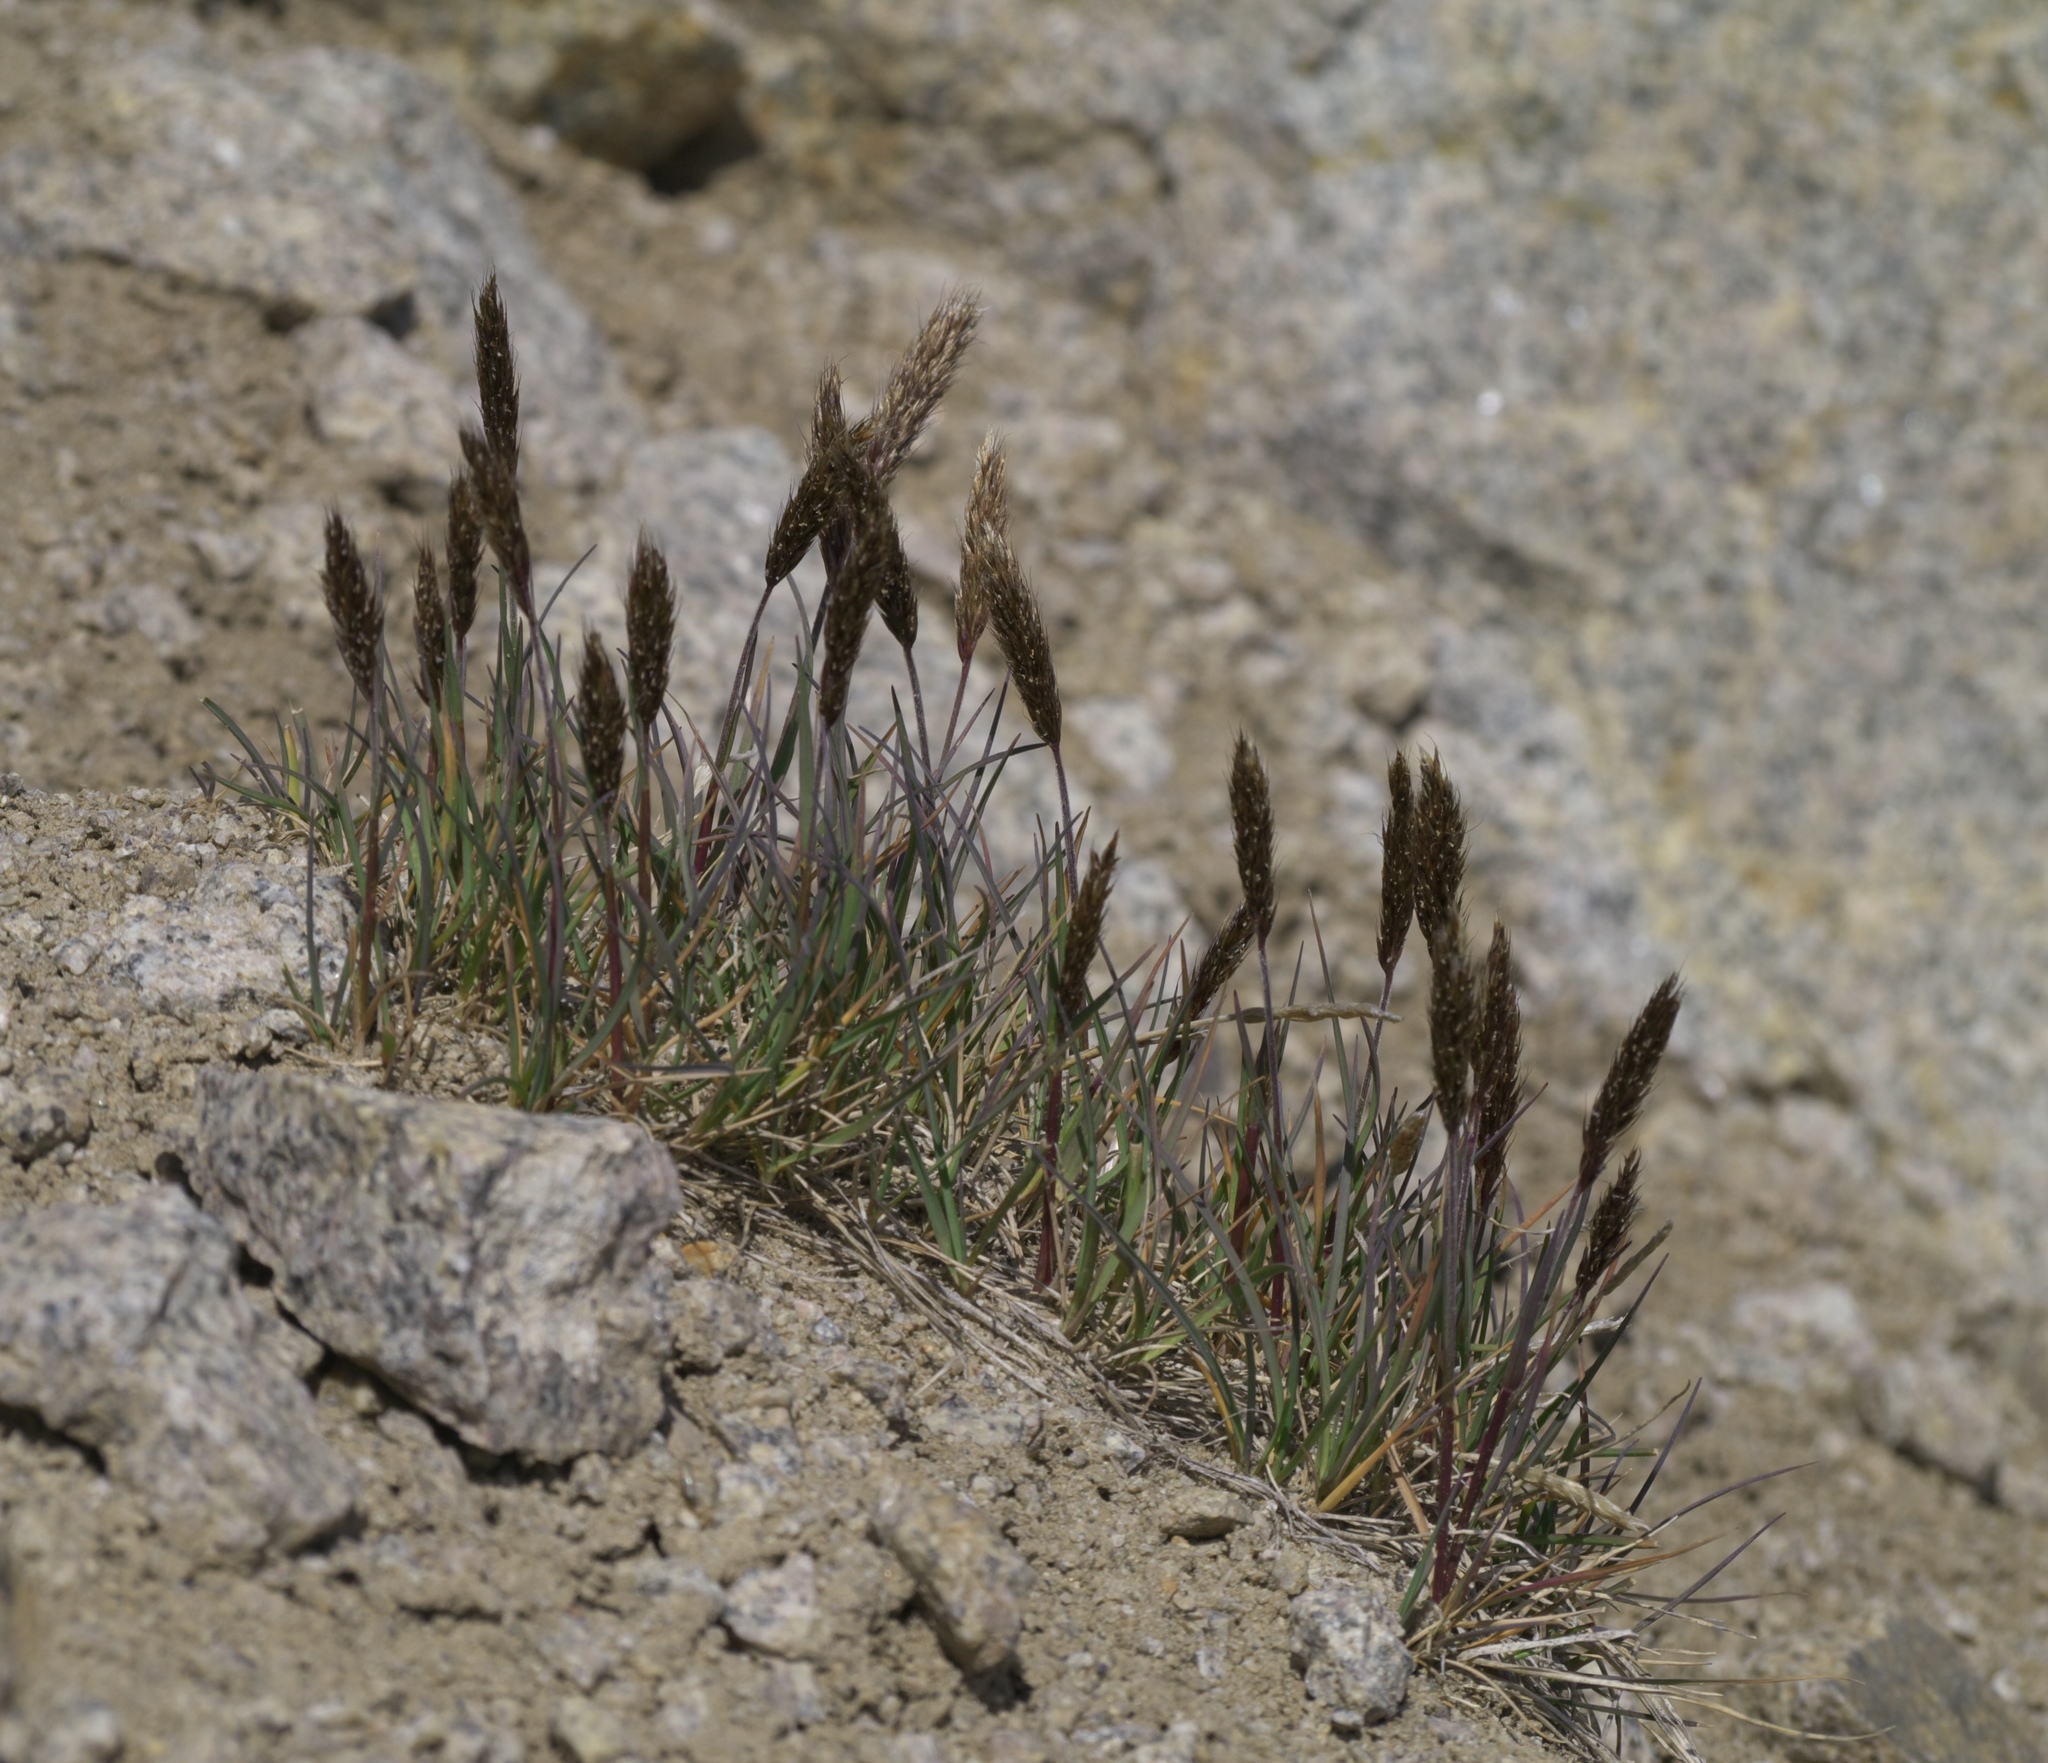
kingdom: Plantae
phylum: Tracheophyta
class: Liliopsida
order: Poales
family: Poaceae
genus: Koeleria
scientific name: Koeleria spicata
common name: Mountain trisetum
